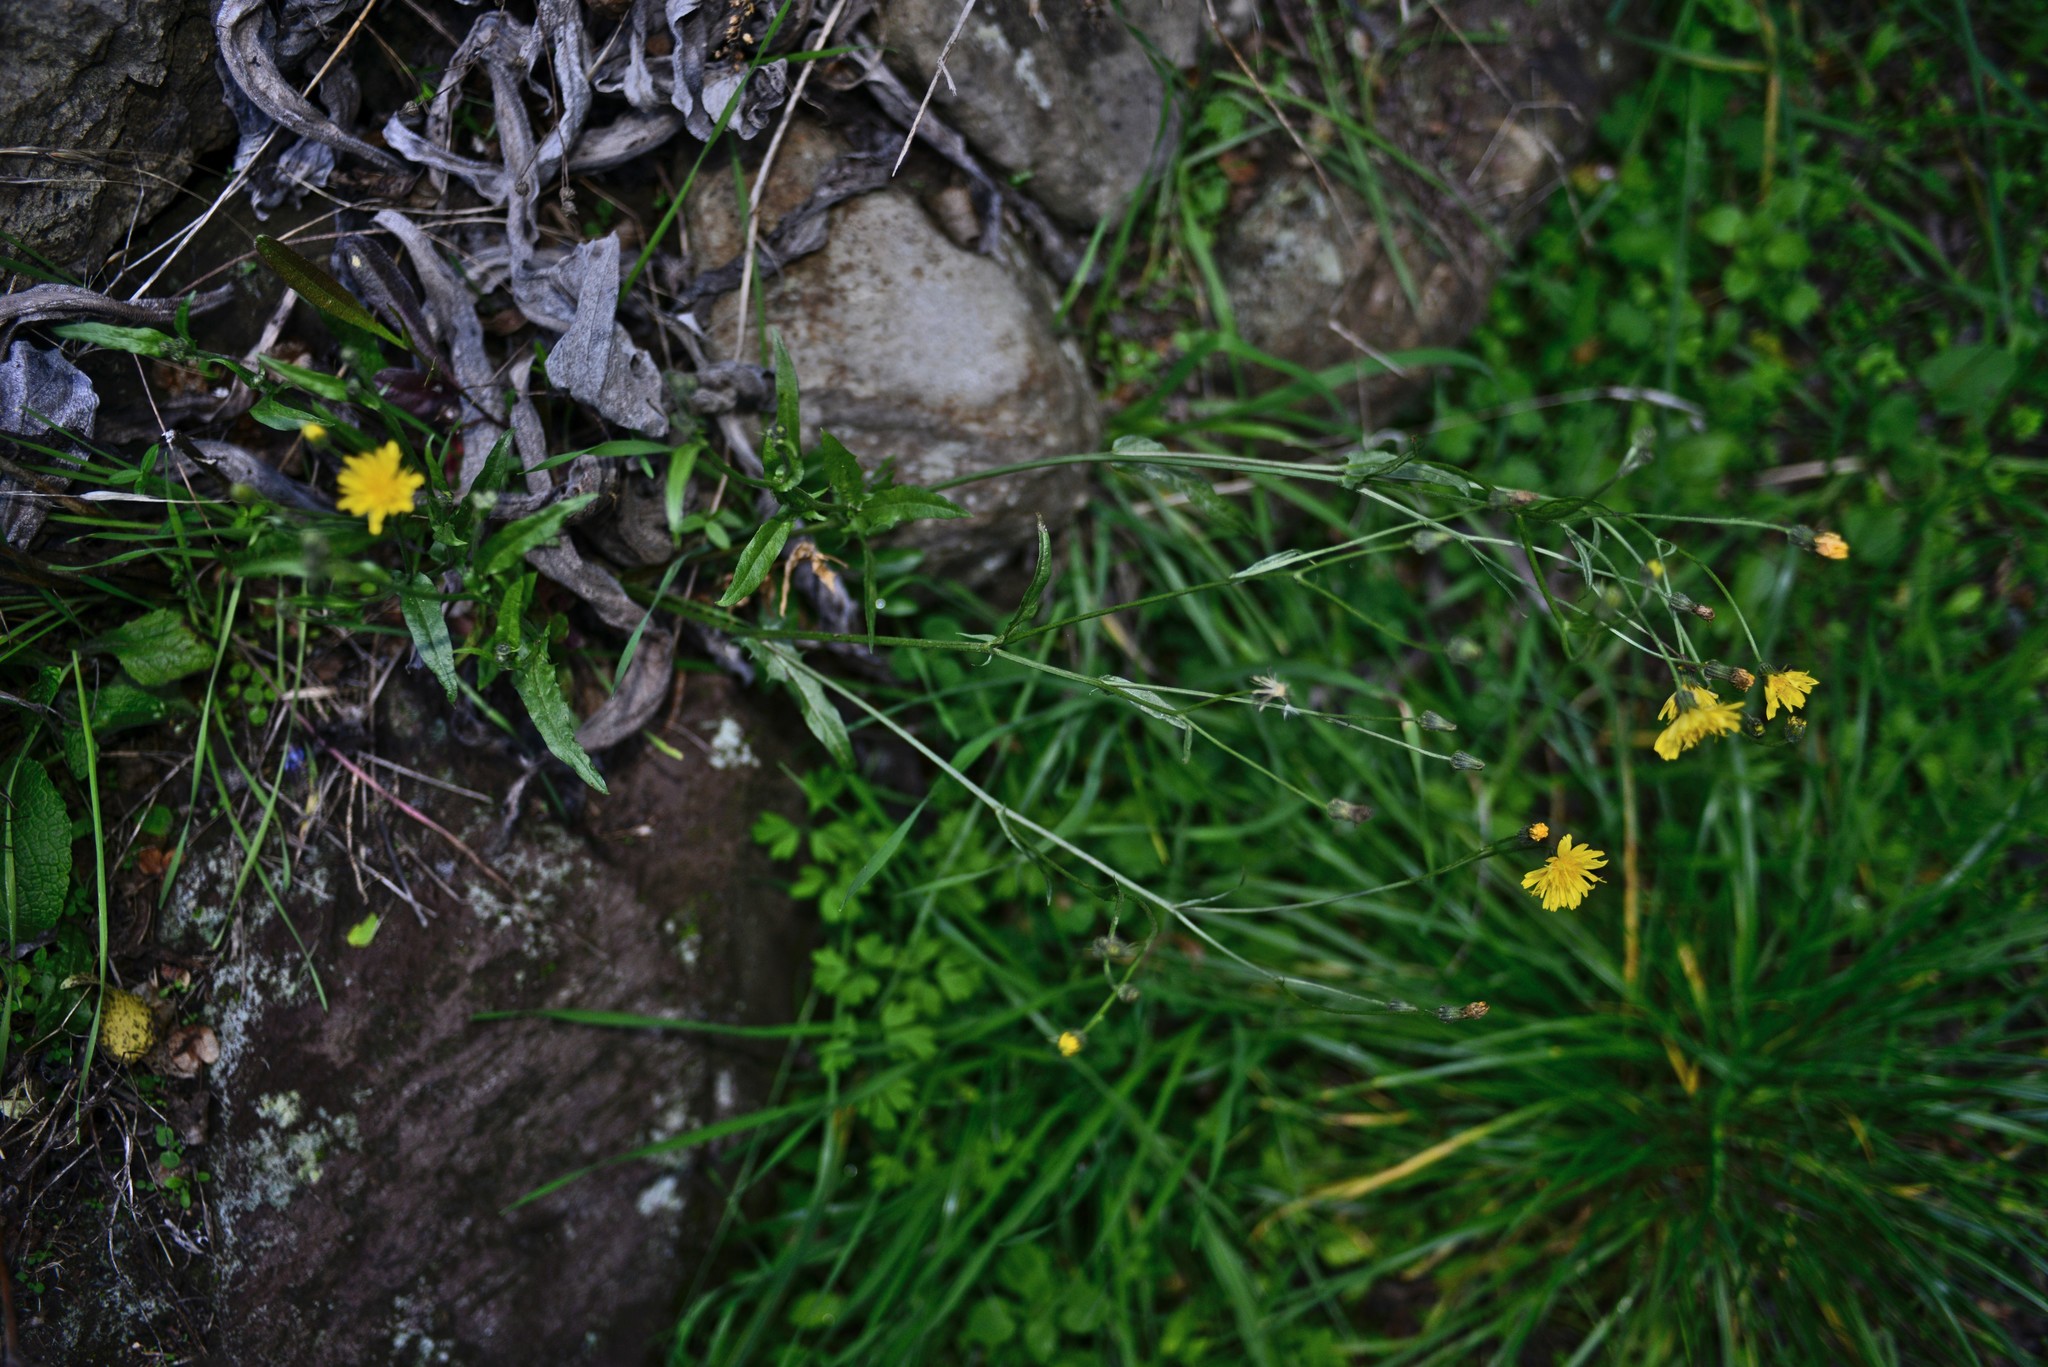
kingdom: Plantae
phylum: Tracheophyta
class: Magnoliopsida
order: Asterales
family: Asteraceae
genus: Crepis
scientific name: Crepis capillaris
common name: Smooth hawksbeard
